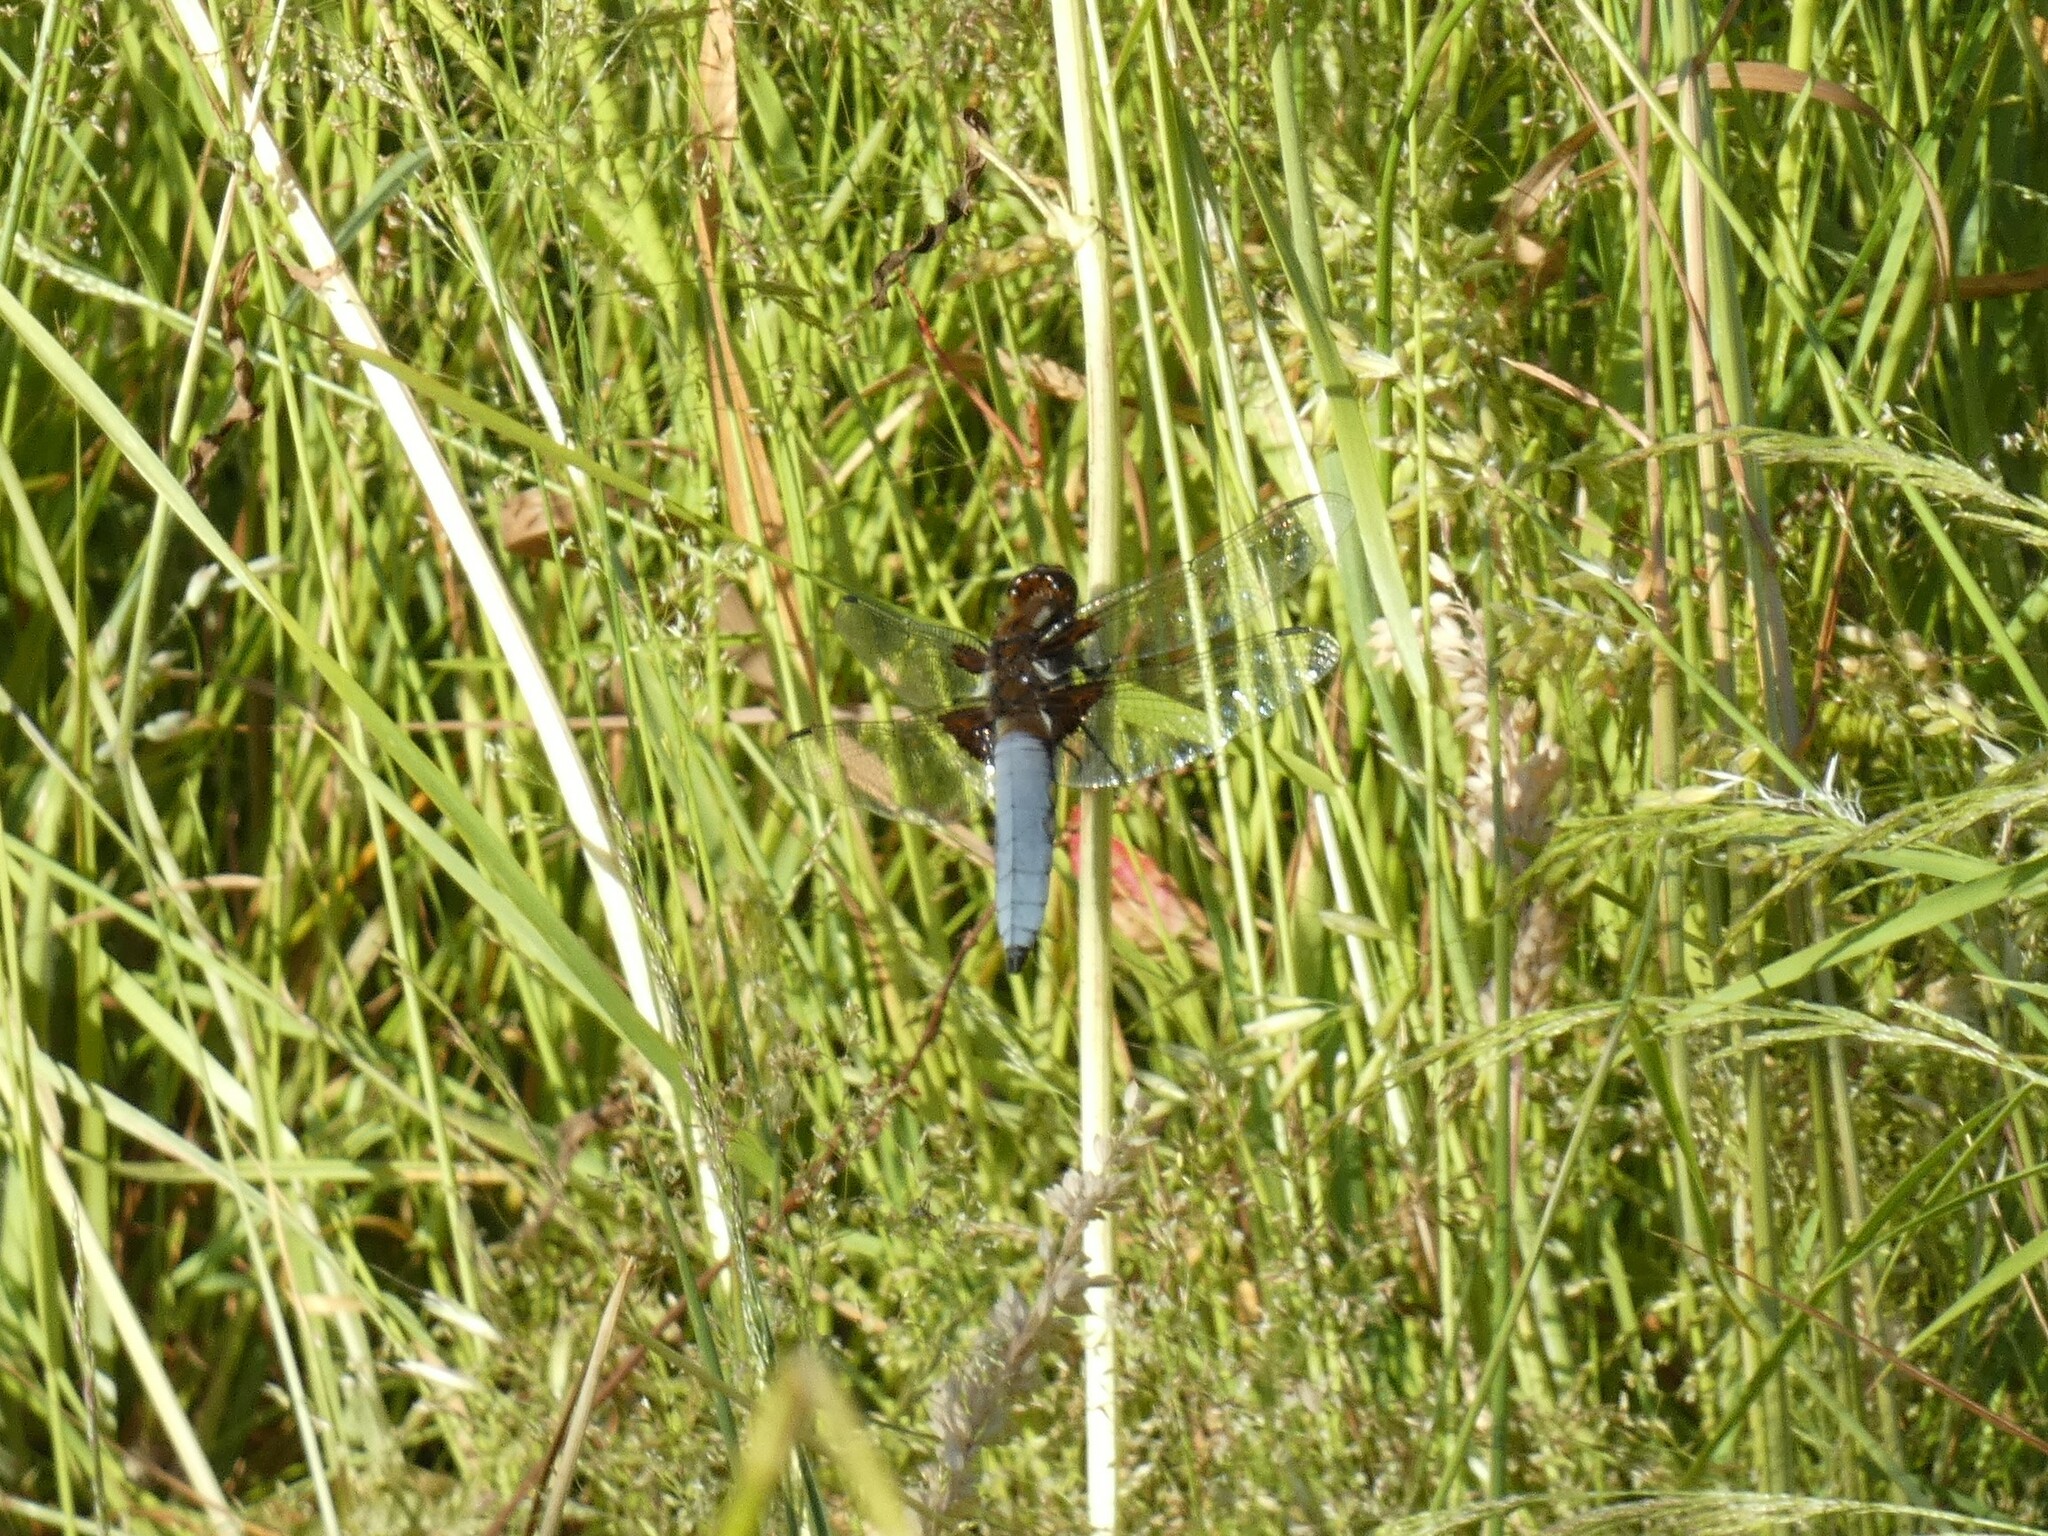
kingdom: Animalia
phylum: Arthropoda
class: Insecta
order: Odonata
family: Libellulidae
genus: Libellula
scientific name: Libellula depressa
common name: Broad-bodied chaser
